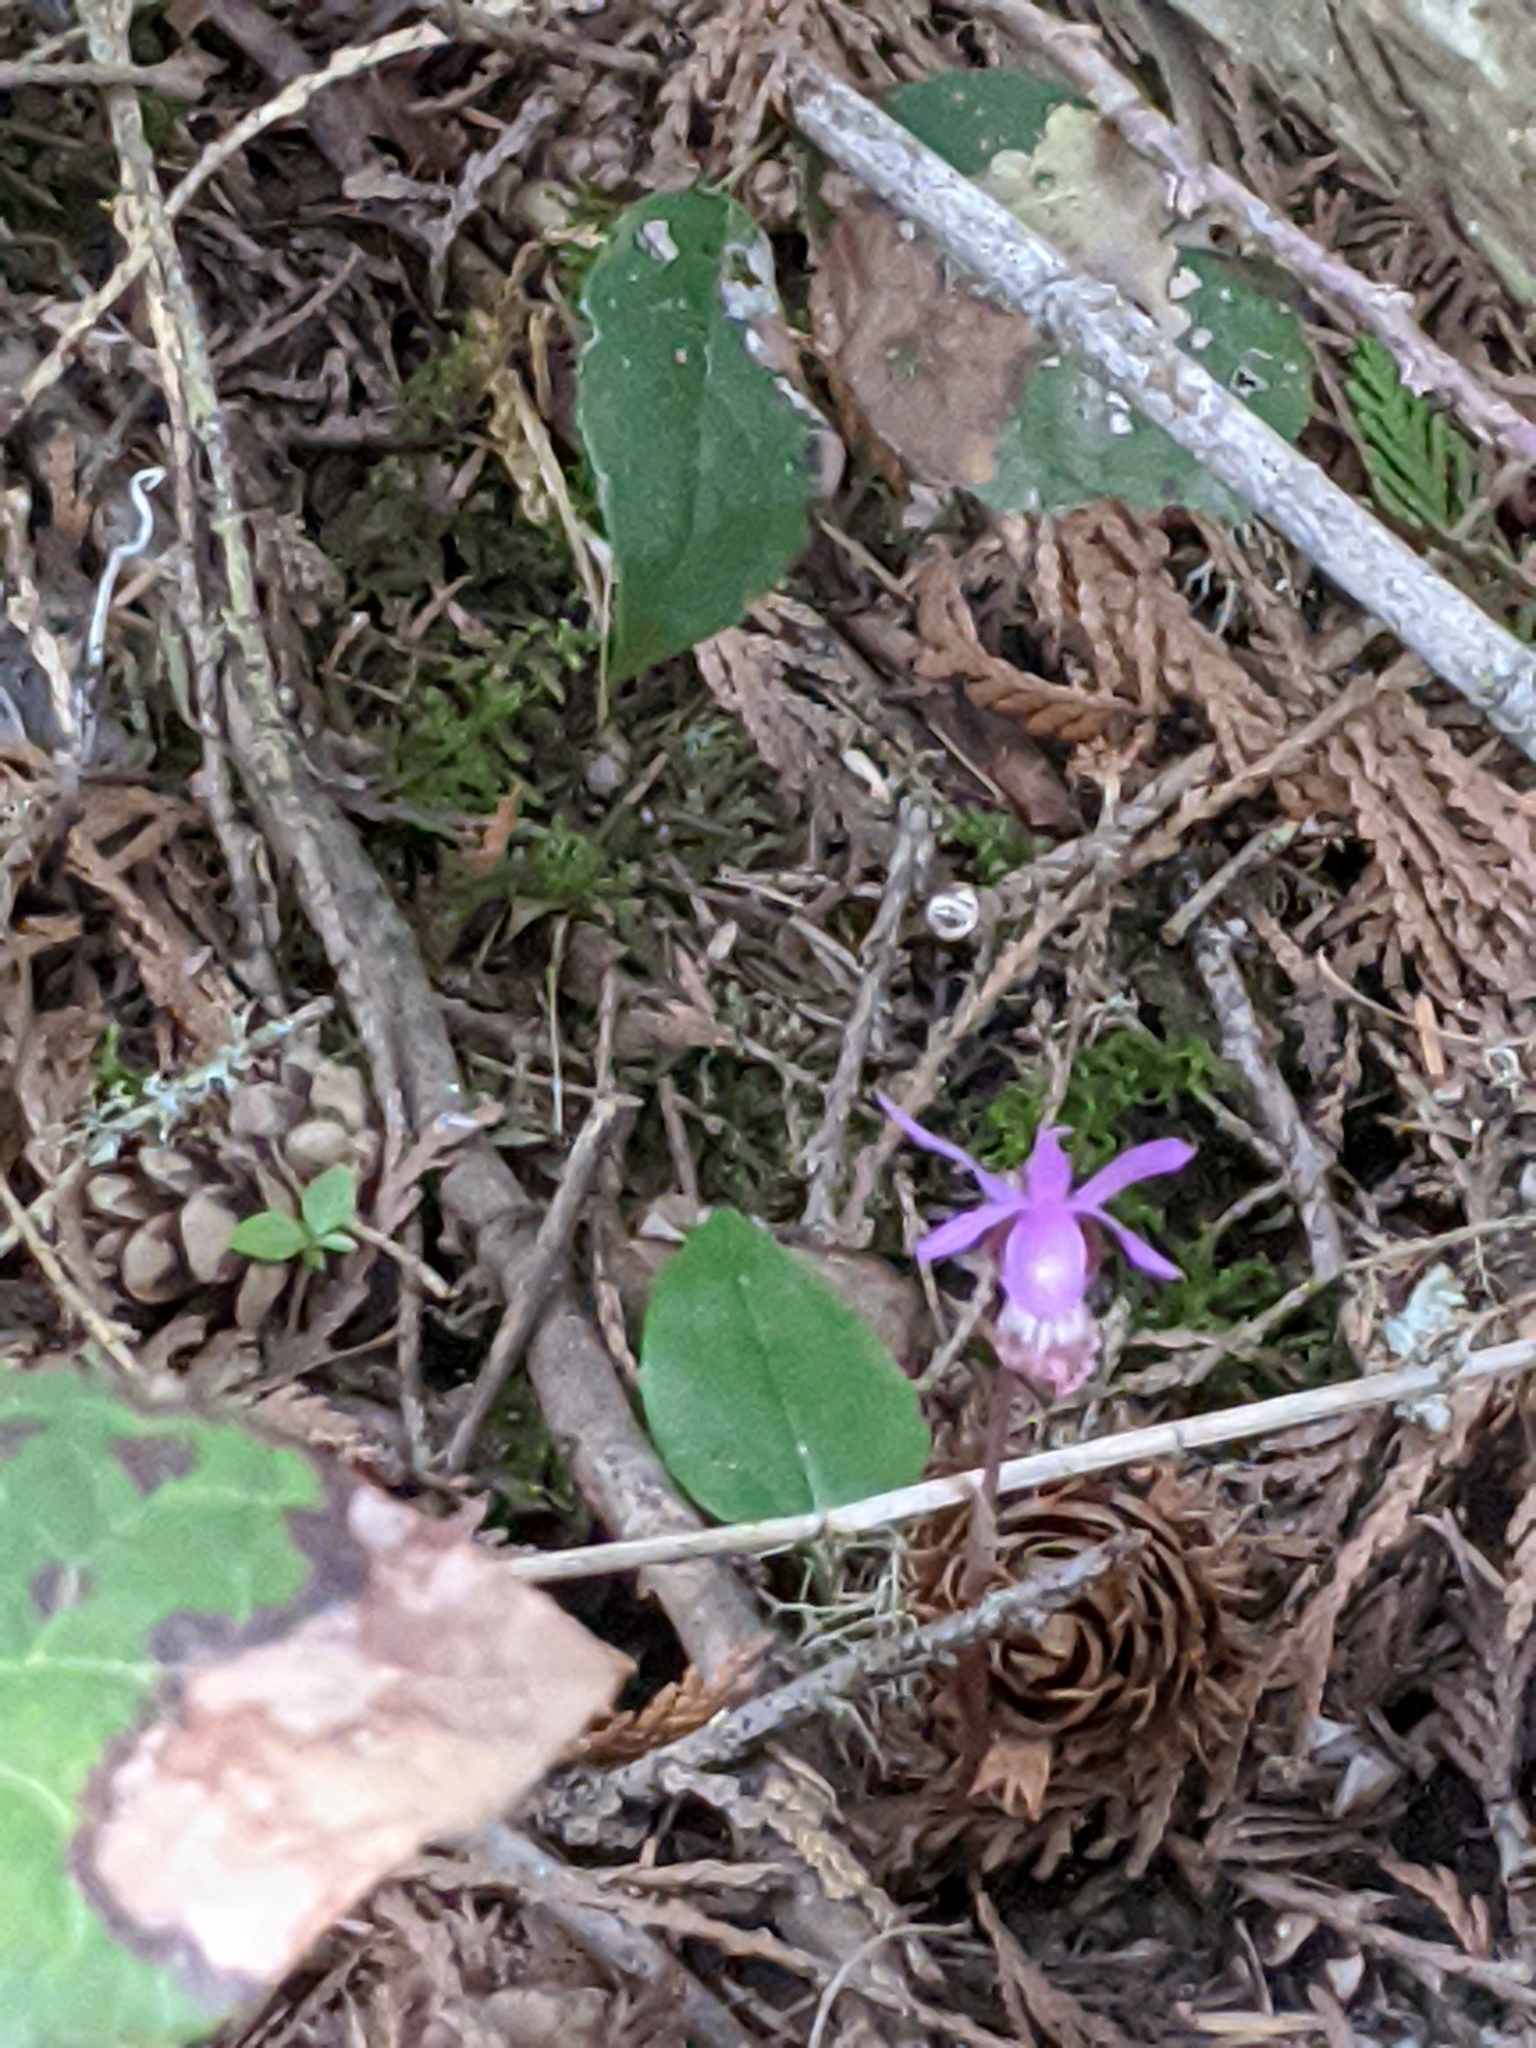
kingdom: Plantae
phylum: Tracheophyta
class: Liliopsida
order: Asparagales
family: Orchidaceae
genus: Calypso
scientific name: Calypso bulbosa
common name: Calypso
